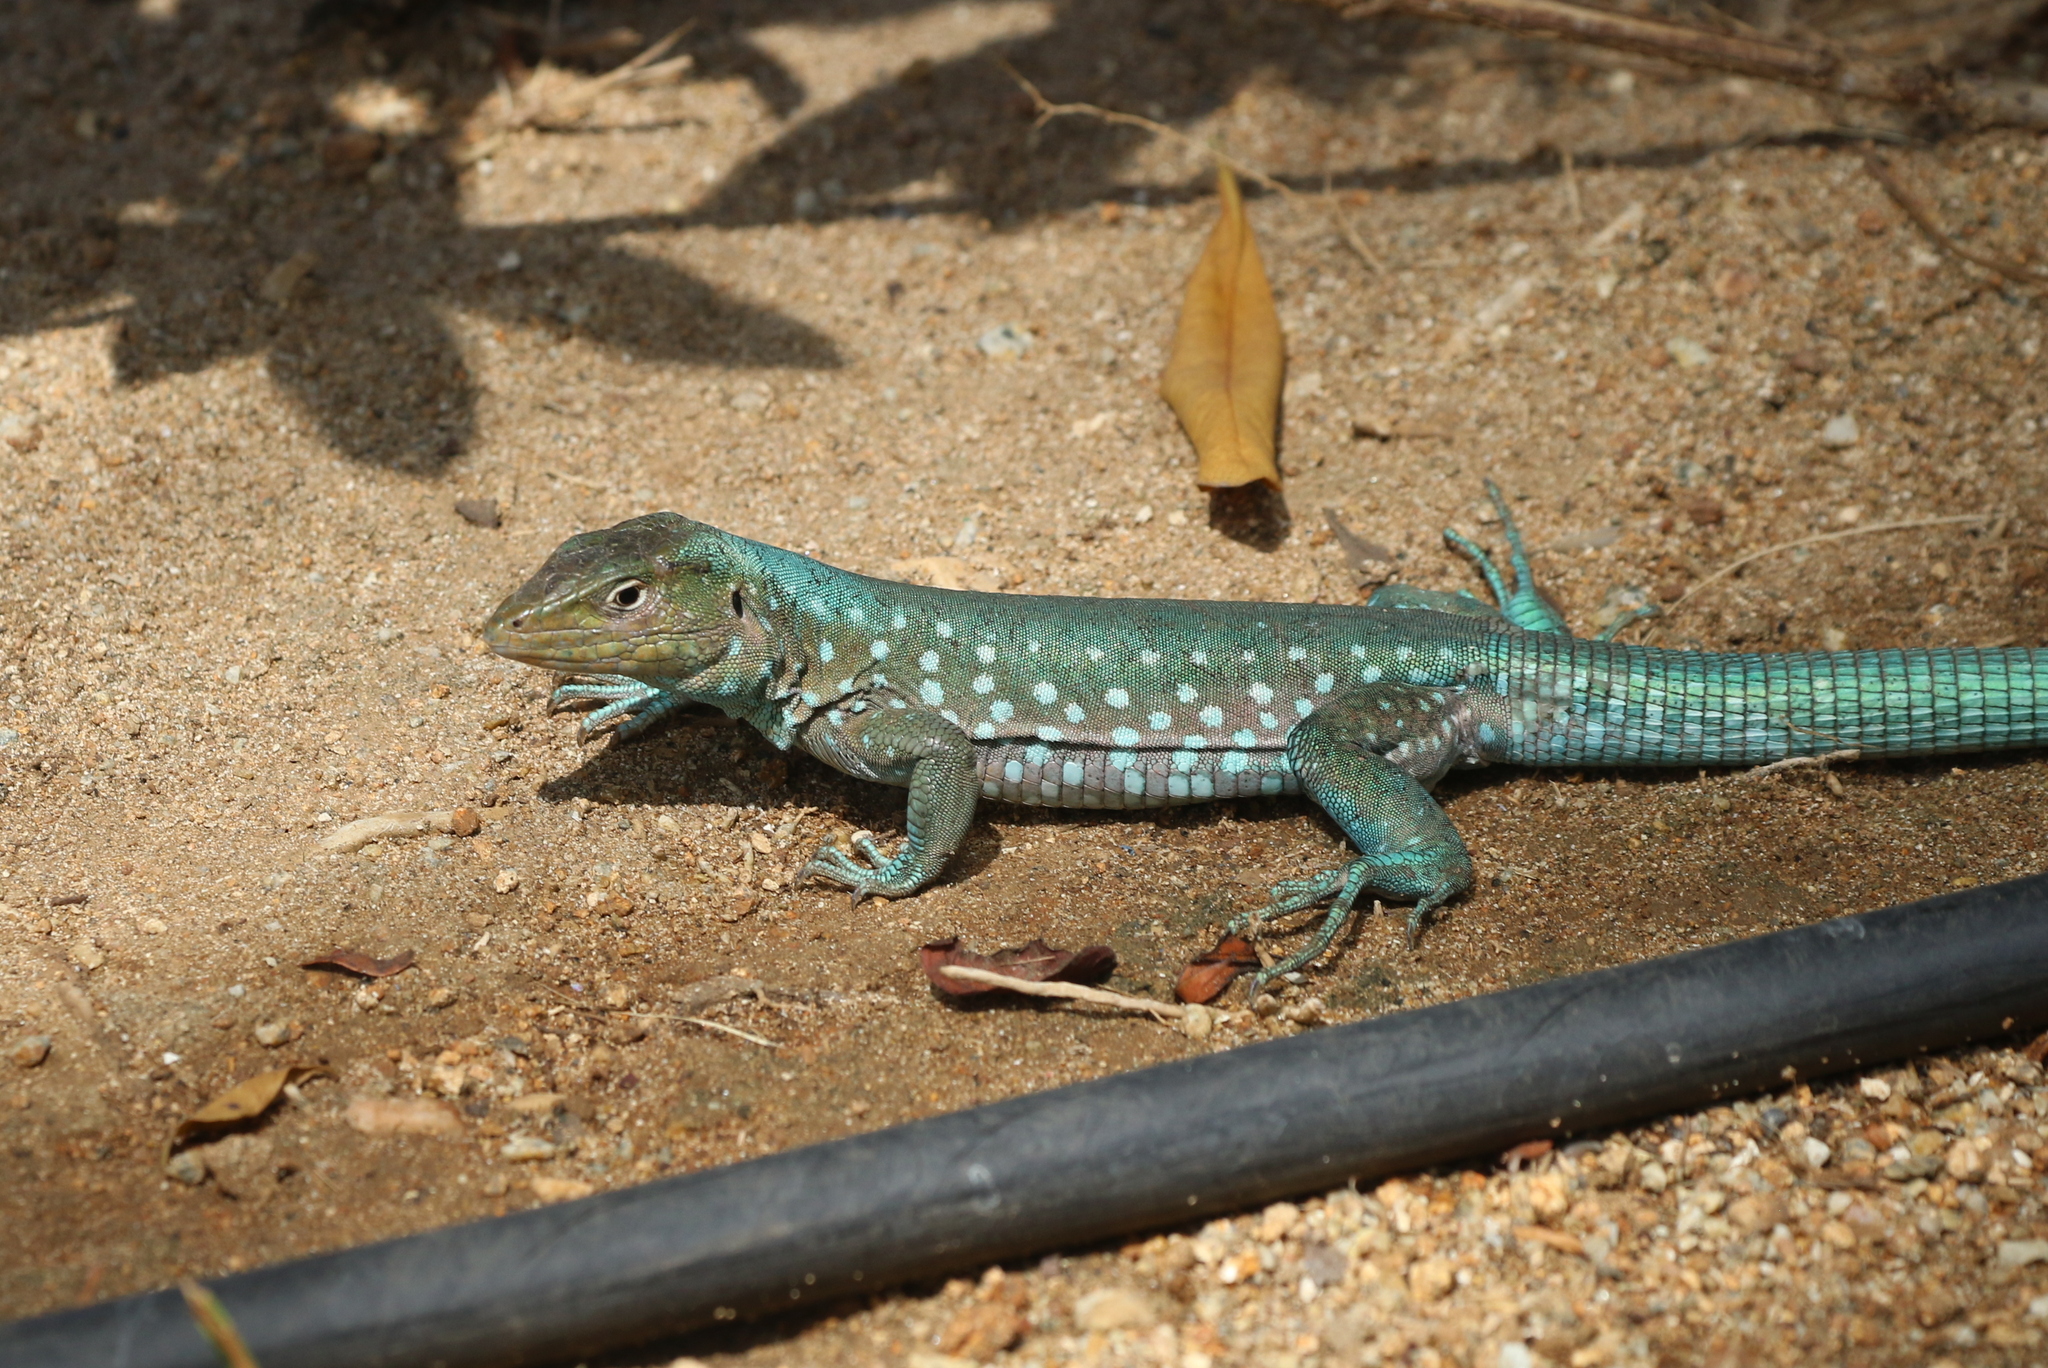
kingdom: Animalia
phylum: Chordata
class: Squamata
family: Teiidae
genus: Cnemidophorus
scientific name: Cnemidophorus arubensis
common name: Aruba whiptail
